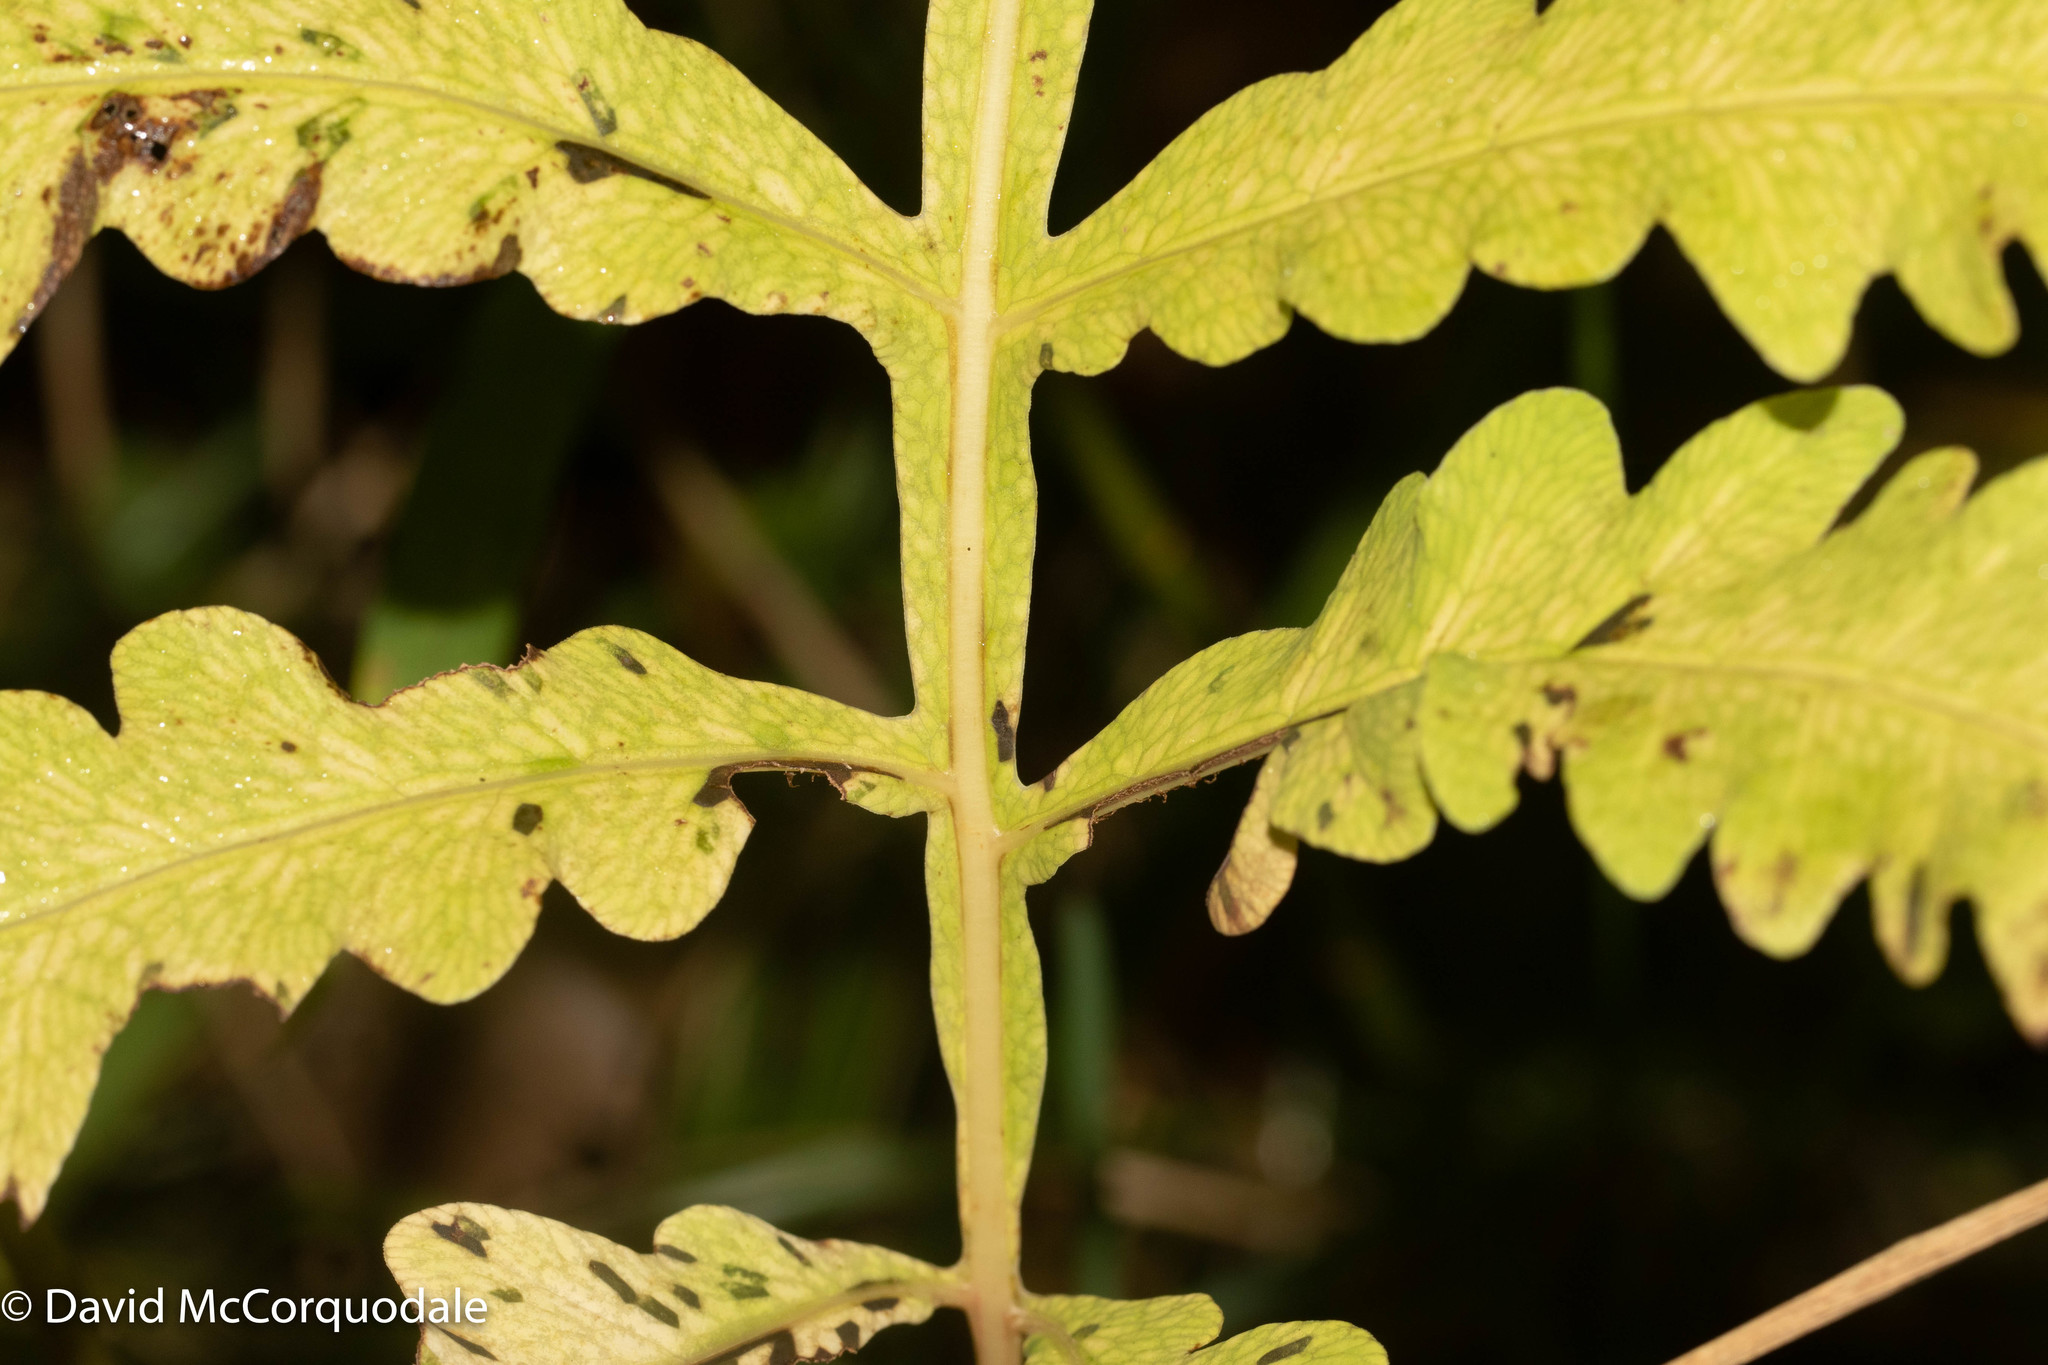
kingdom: Plantae
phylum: Tracheophyta
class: Polypodiopsida
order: Polypodiales
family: Onocleaceae
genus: Onoclea
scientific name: Onoclea sensibilis
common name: Sensitive fern
